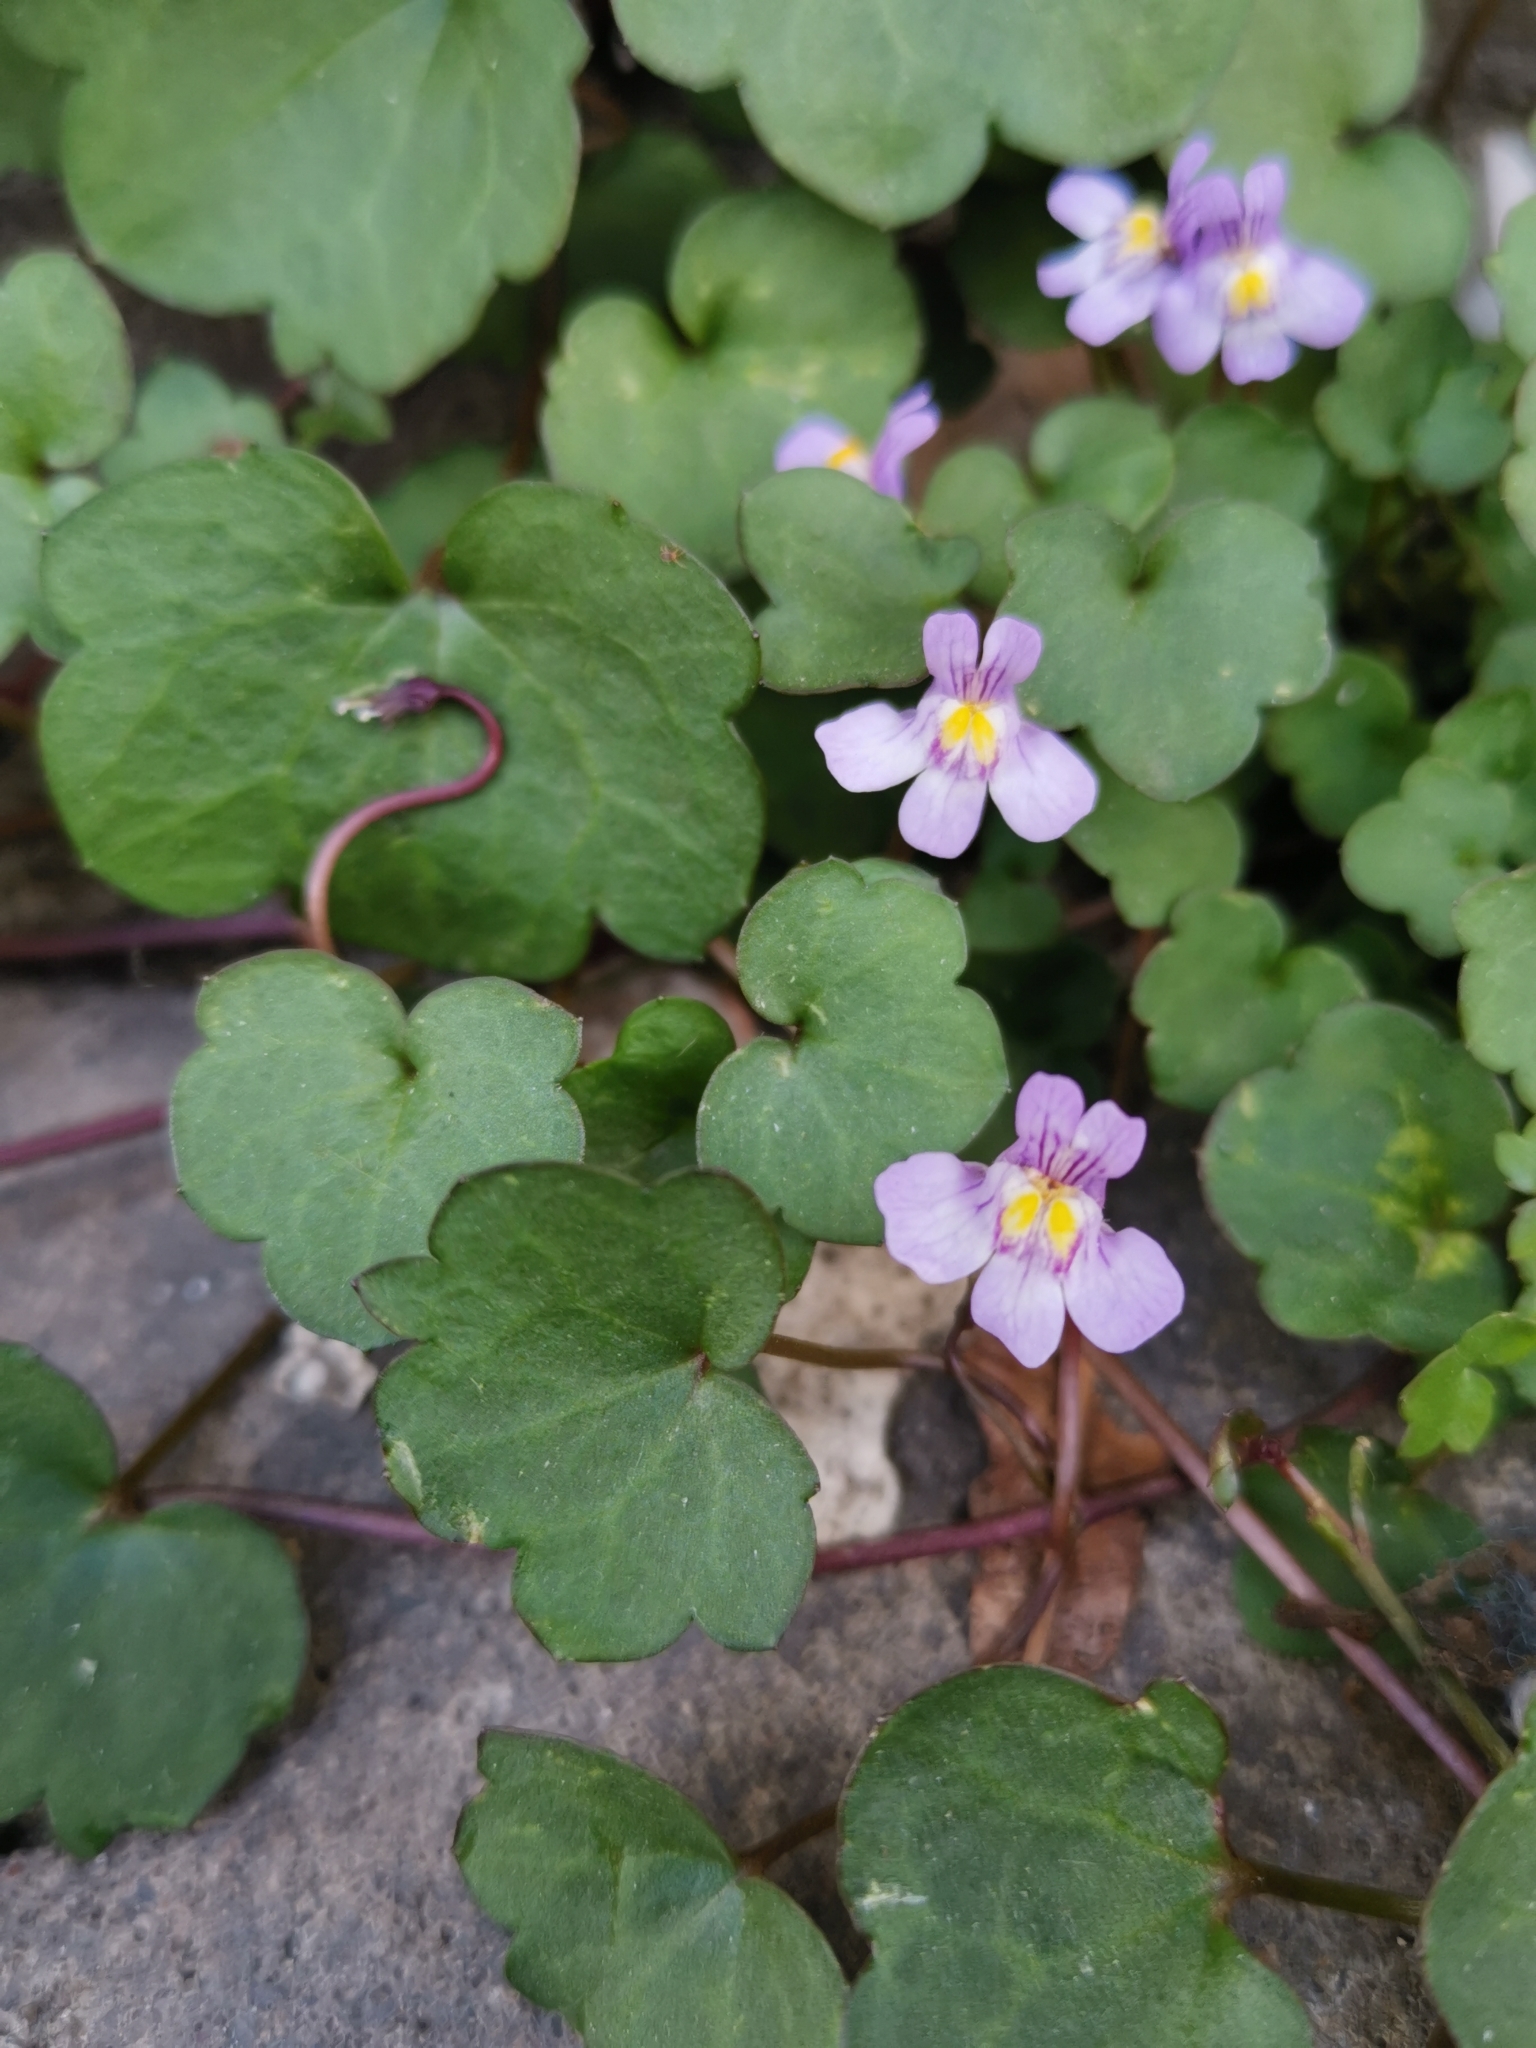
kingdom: Plantae
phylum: Tracheophyta
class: Magnoliopsida
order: Lamiales
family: Plantaginaceae
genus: Cymbalaria
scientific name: Cymbalaria muralis
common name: Ivy-leaved toadflax
